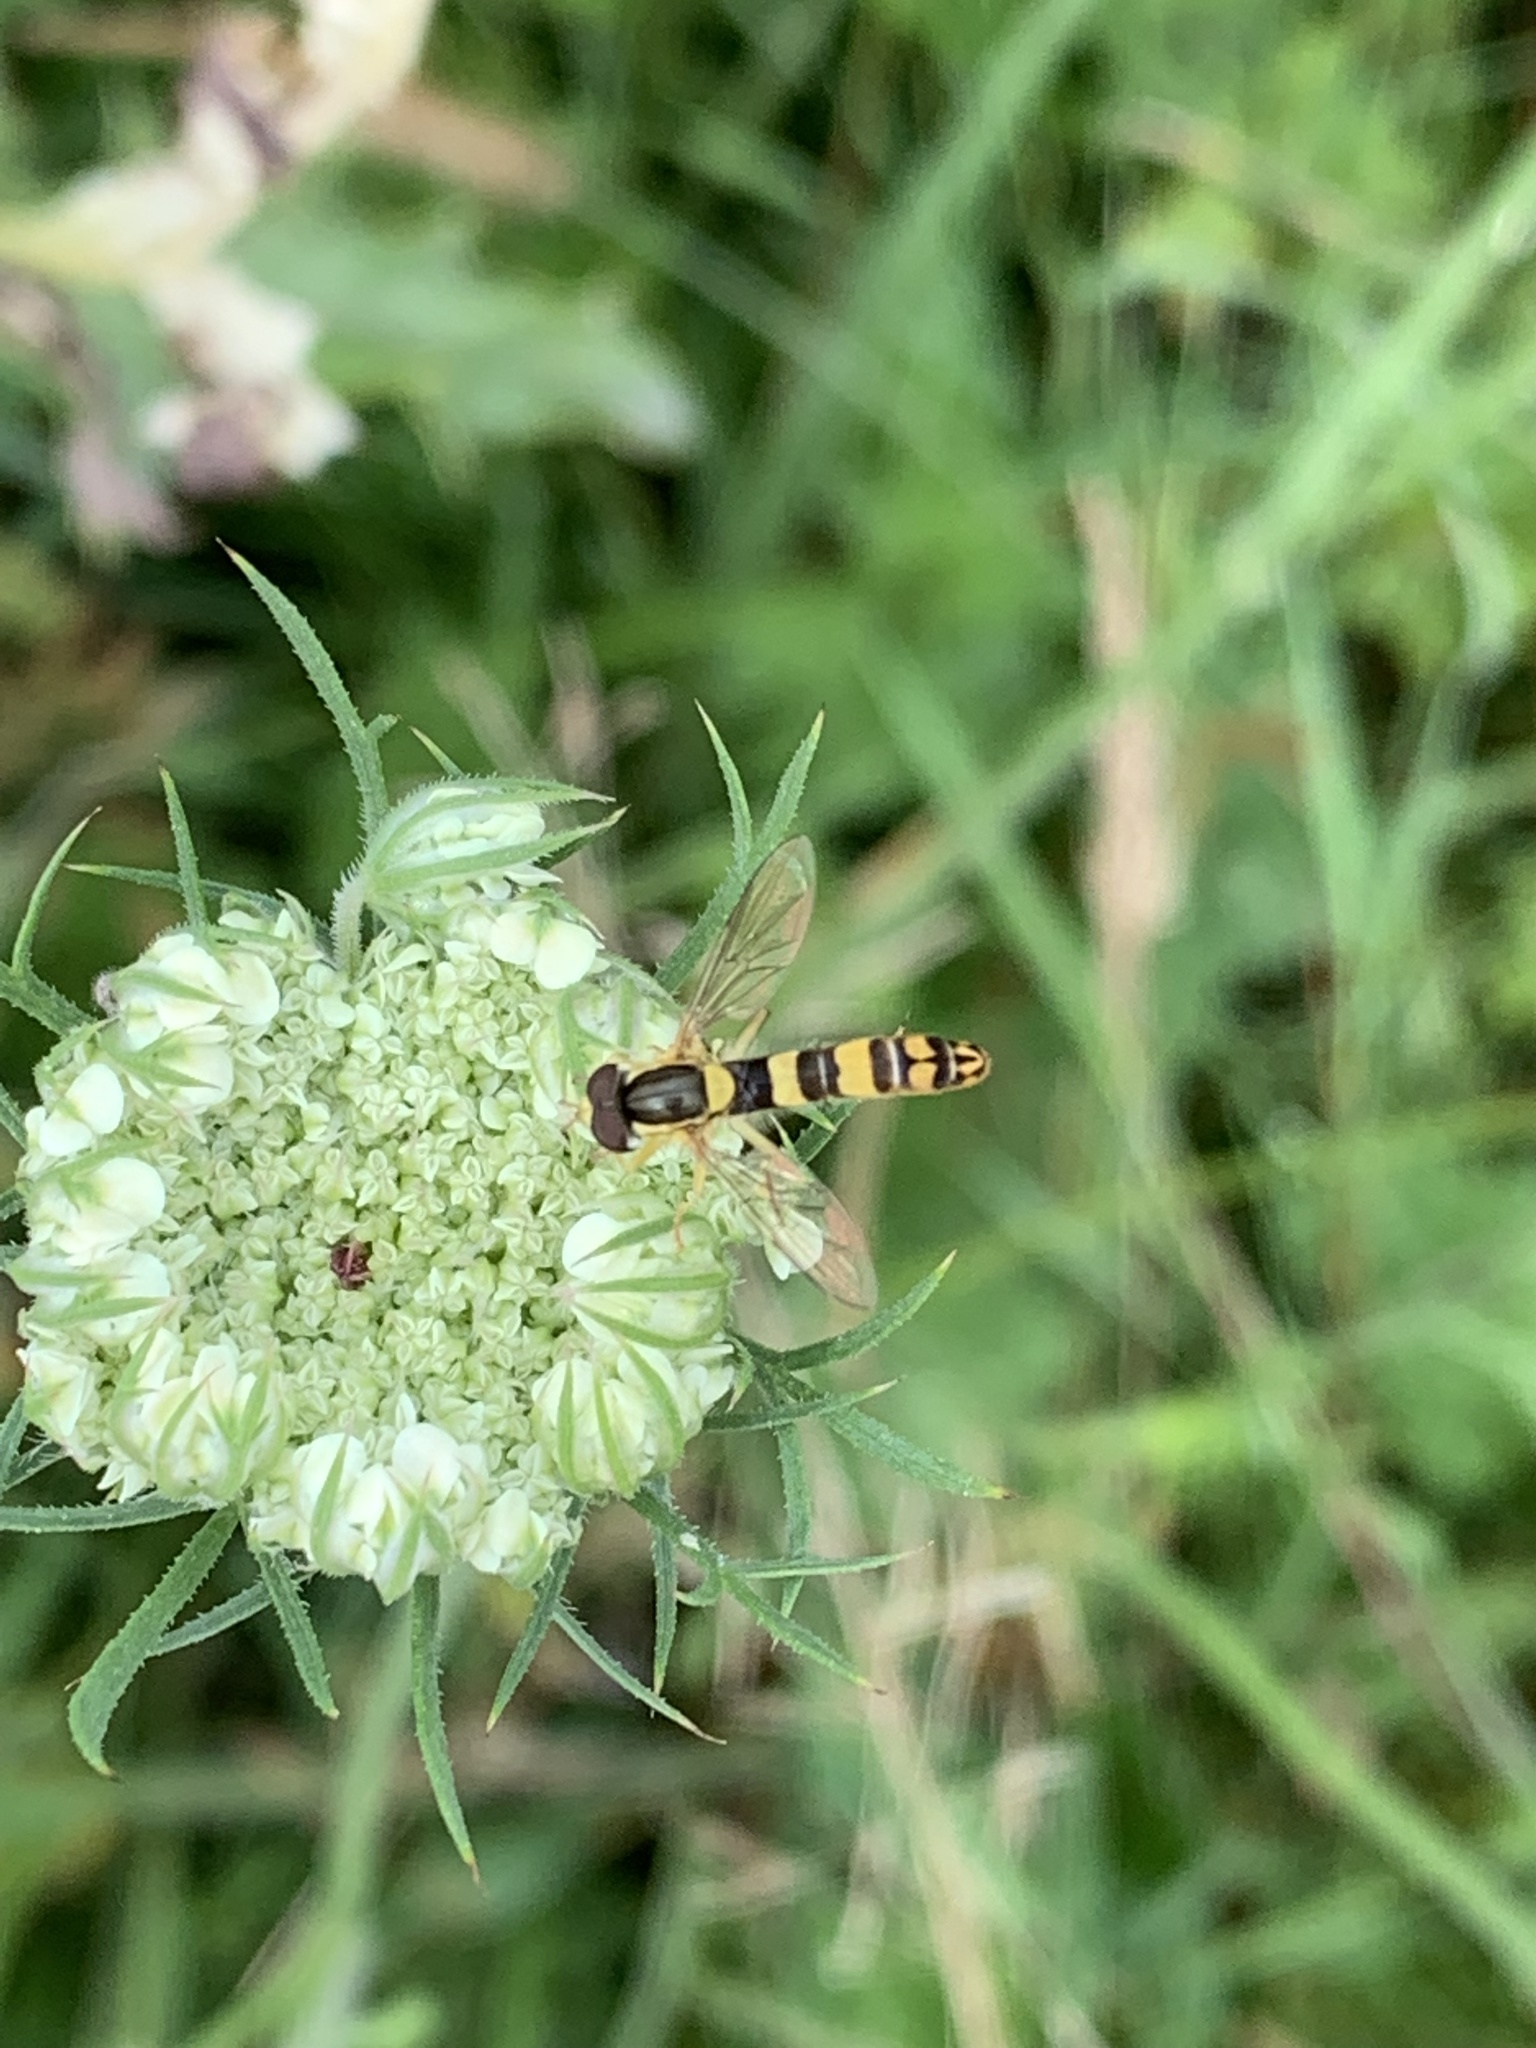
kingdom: Animalia
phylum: Arthropoda
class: Insecta
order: Diptera
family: Syrphidae
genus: Sphaerophoria
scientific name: Sphaerophoria scripta
